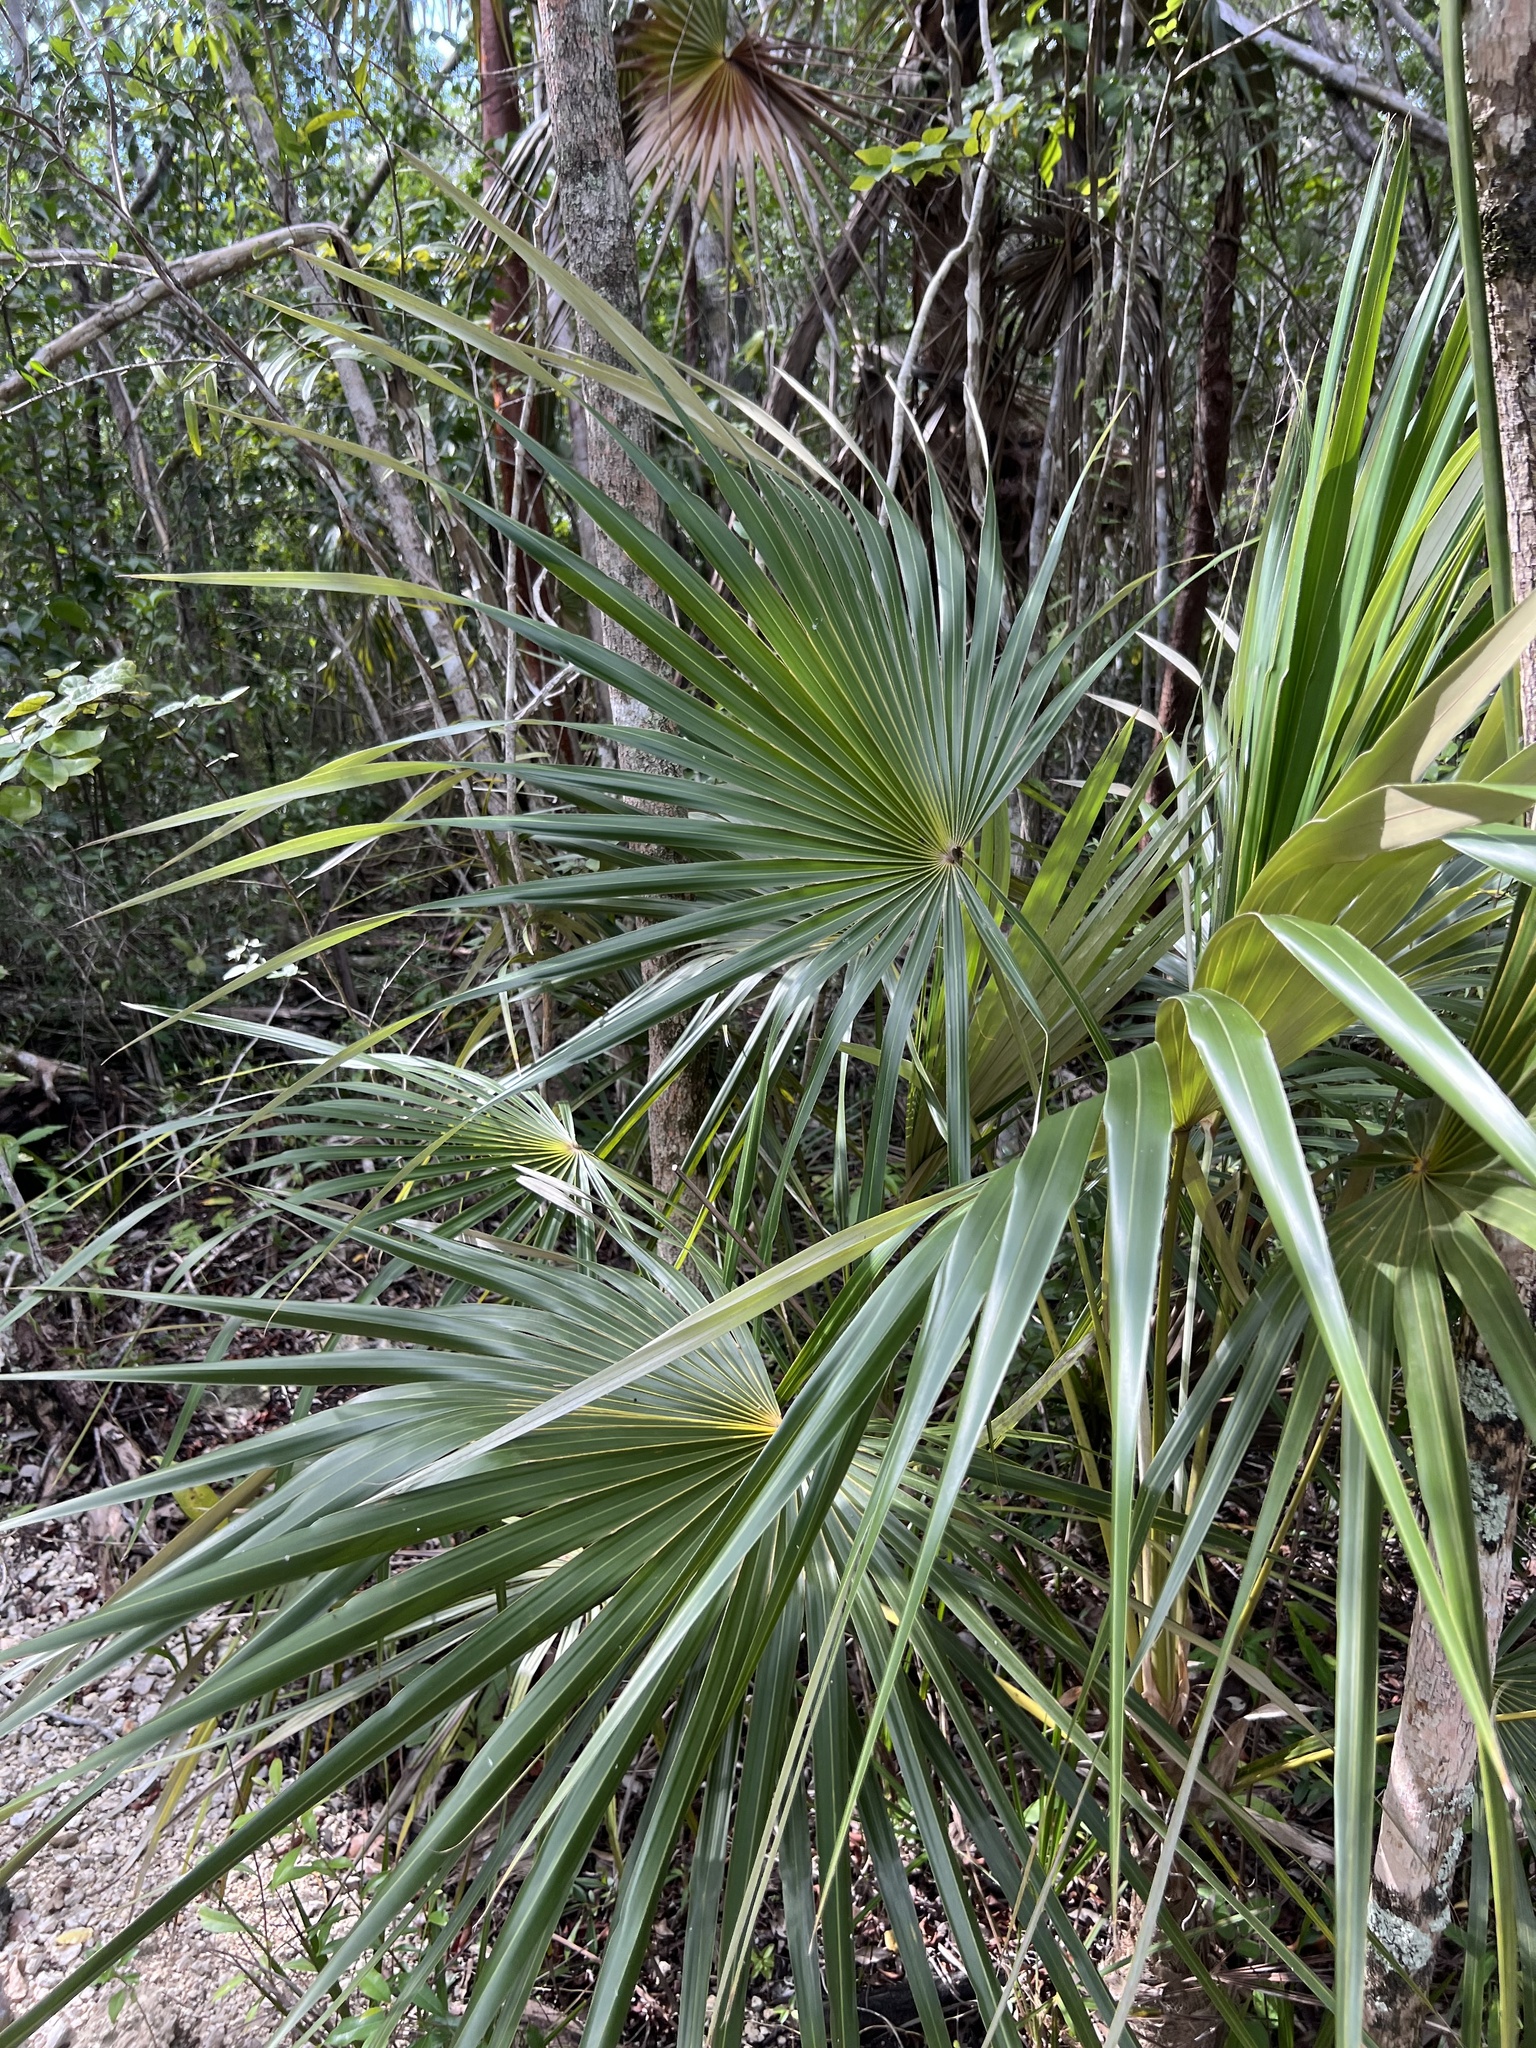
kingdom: Plantae
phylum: Tracheophyta
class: Liliopsida
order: Arecales
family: Arecaceae
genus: Coccothrinax
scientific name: Coccothrinax proctorii
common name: Silver palm
